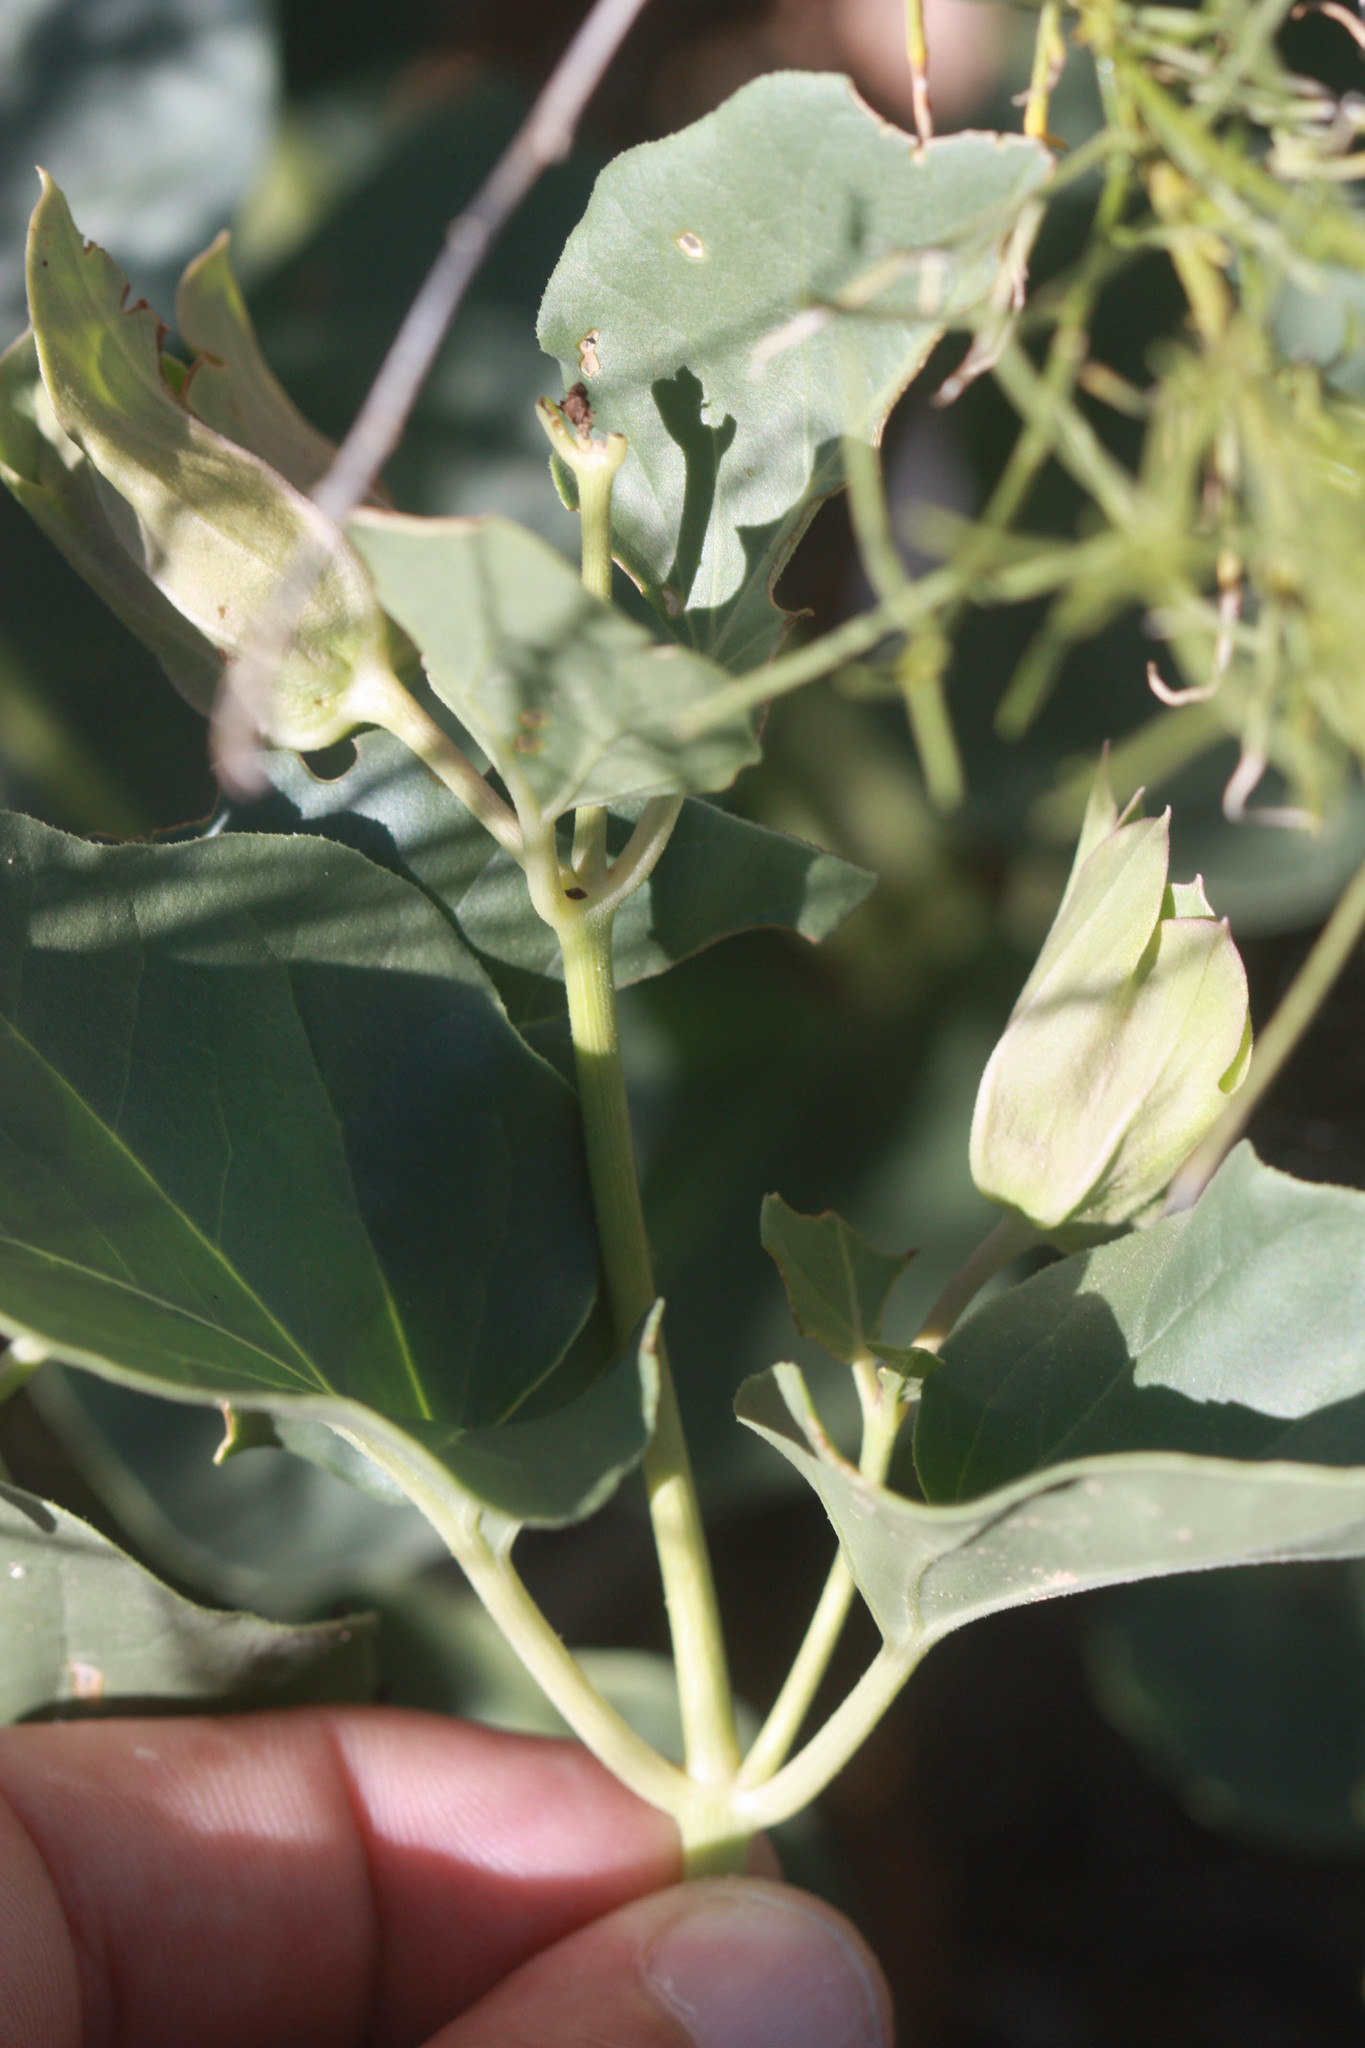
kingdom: Plantae
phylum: Tracheophyta
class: Magnoliopsida
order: Caryophyllales
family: Nyctaginaceae
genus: Mirabilis
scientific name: Mirabilis multiflora
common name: Froebel's four-o'clock
